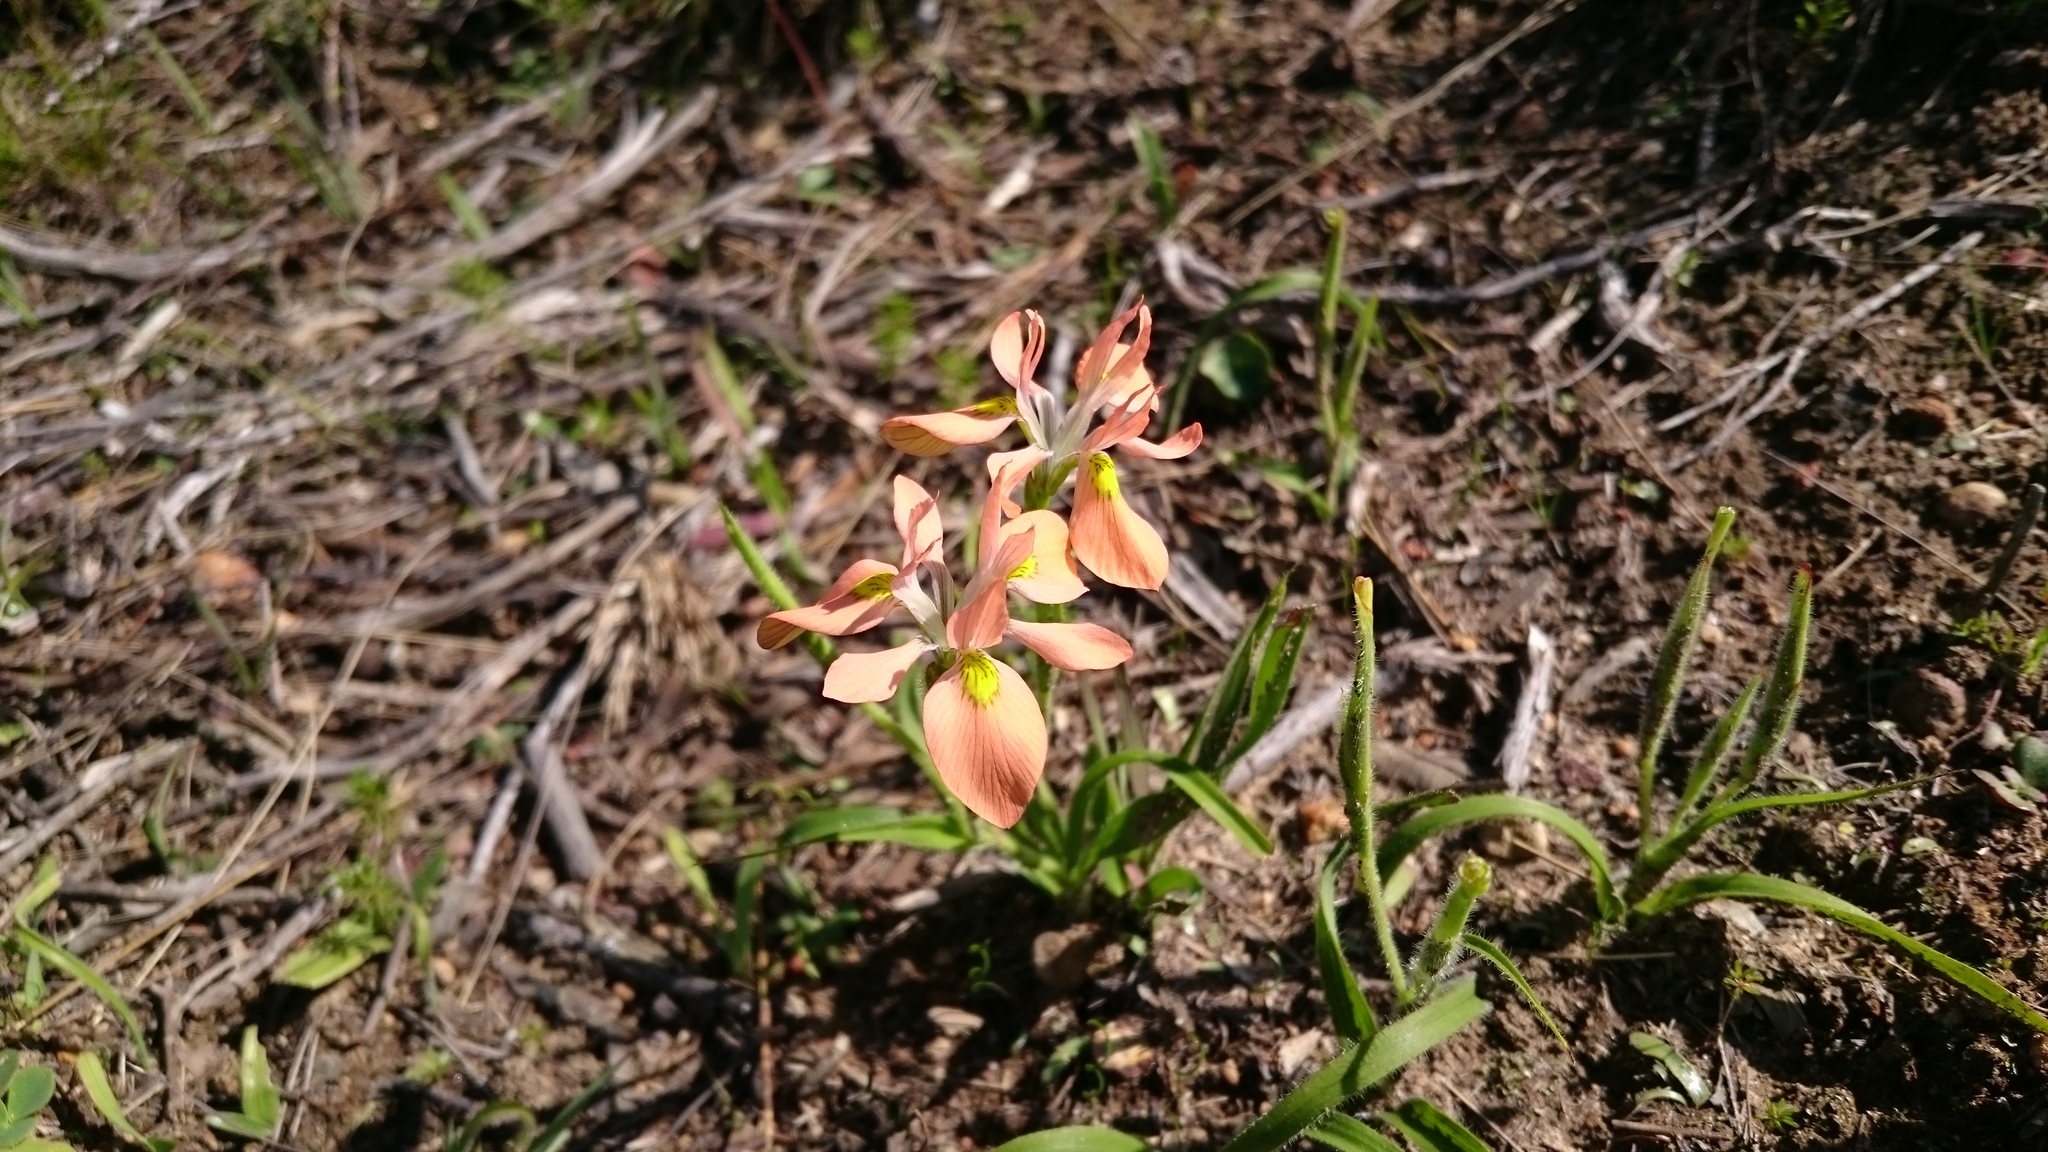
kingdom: Plantae
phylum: Tracheophyta
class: Liliopsida
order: Asparagales
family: Iridaceae
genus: Moraea
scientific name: Moraea papilionacea
